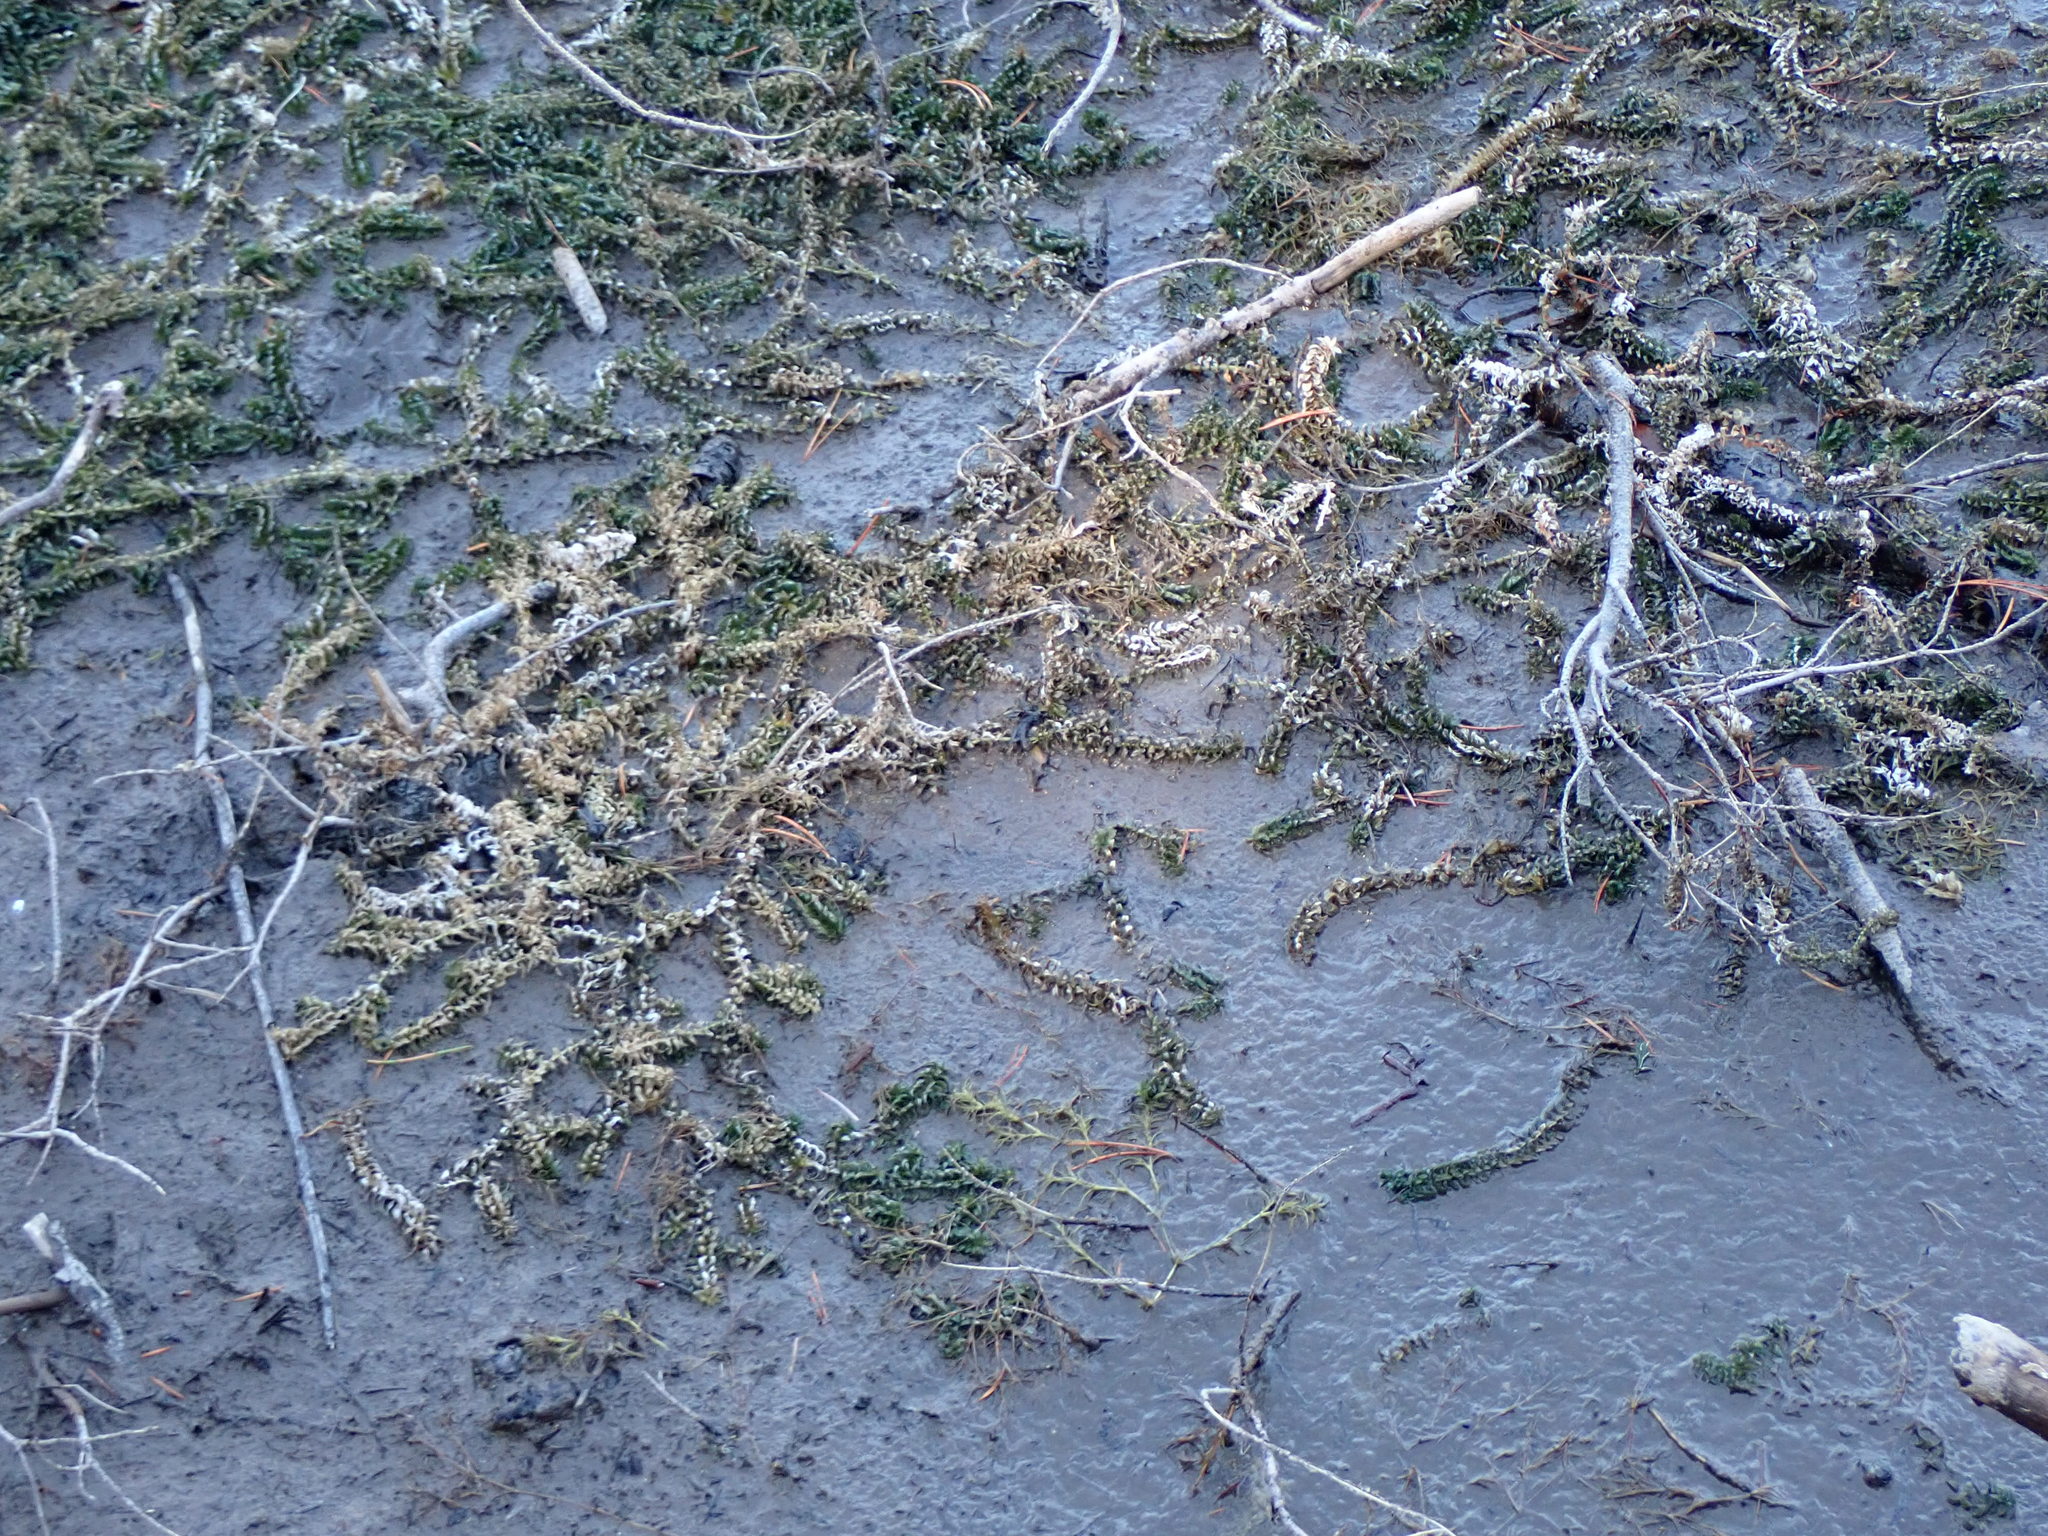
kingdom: Plantae
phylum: Tracheophyta
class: Liliopsida
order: Alismatales
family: Hydrocharitaceae
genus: Elodea
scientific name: Elodea canadensis
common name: Canadian waterweed
